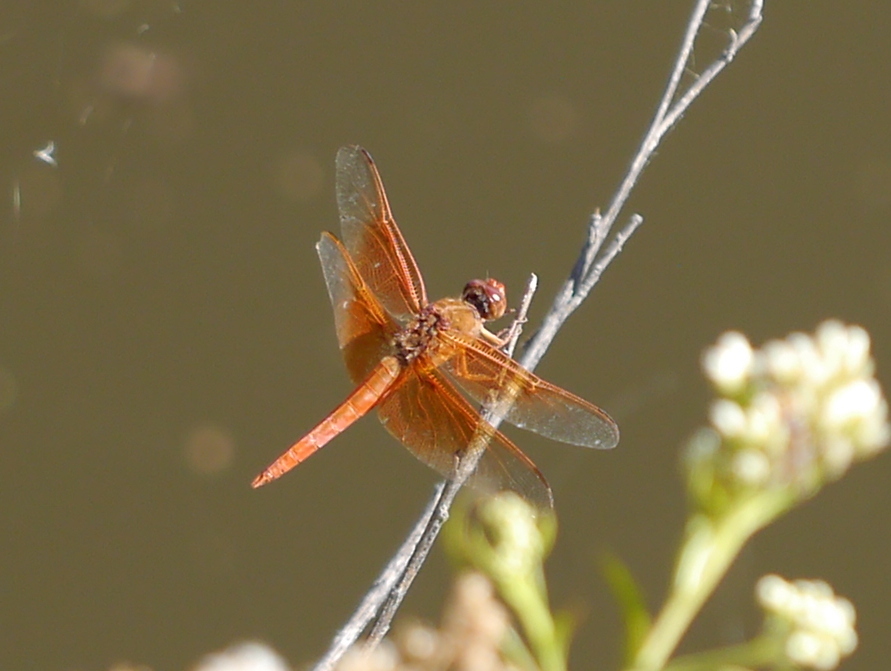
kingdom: Animalia
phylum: Arthropoda
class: Insecta
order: Odonata
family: Libellulidae
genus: Libellula
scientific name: Libellula saturata
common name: Flame skimmer
